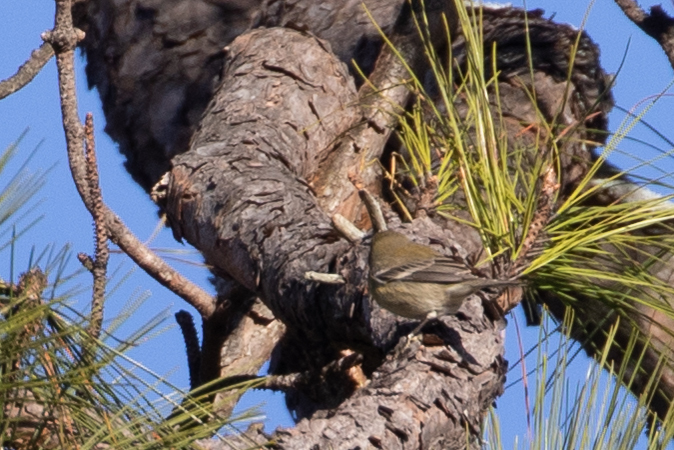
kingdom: Animalia
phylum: Chordata
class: Aves
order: Passeriformes
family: Parulidae
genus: Setophaga
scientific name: Setophaga pinus
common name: Pine warbler
